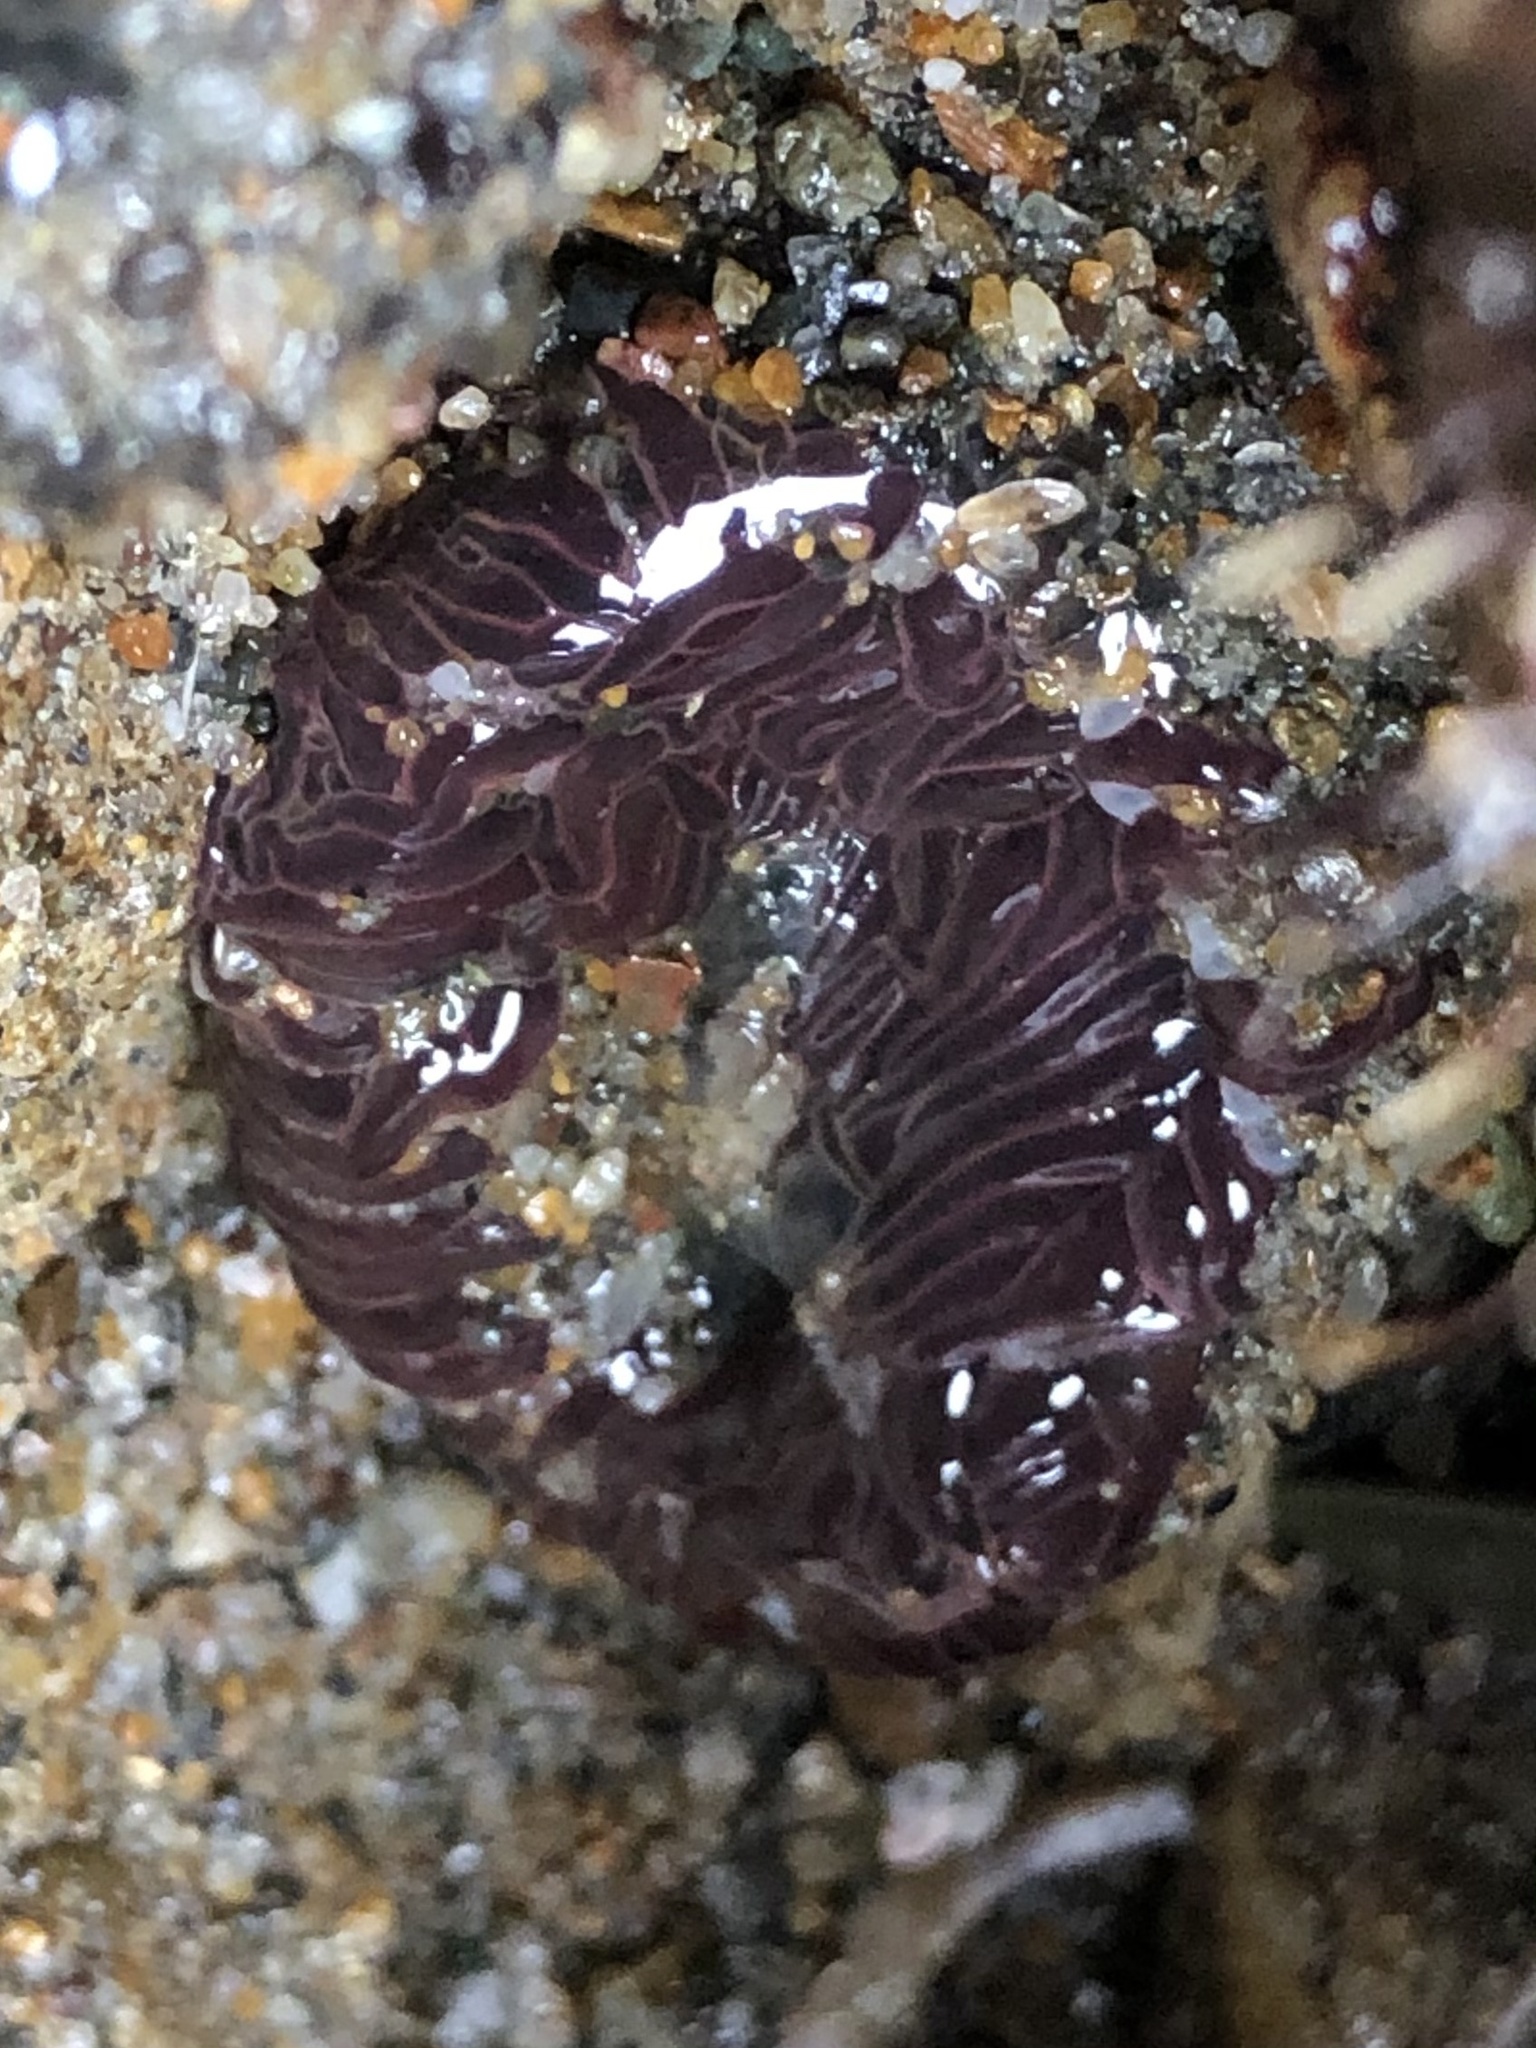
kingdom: Animalia
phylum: Cnidaria
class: Anthozoa
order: Actiniaria
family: Actiniidae
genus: Anthopleura
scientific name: Anthopleura artemisia
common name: Buried sea anemone
